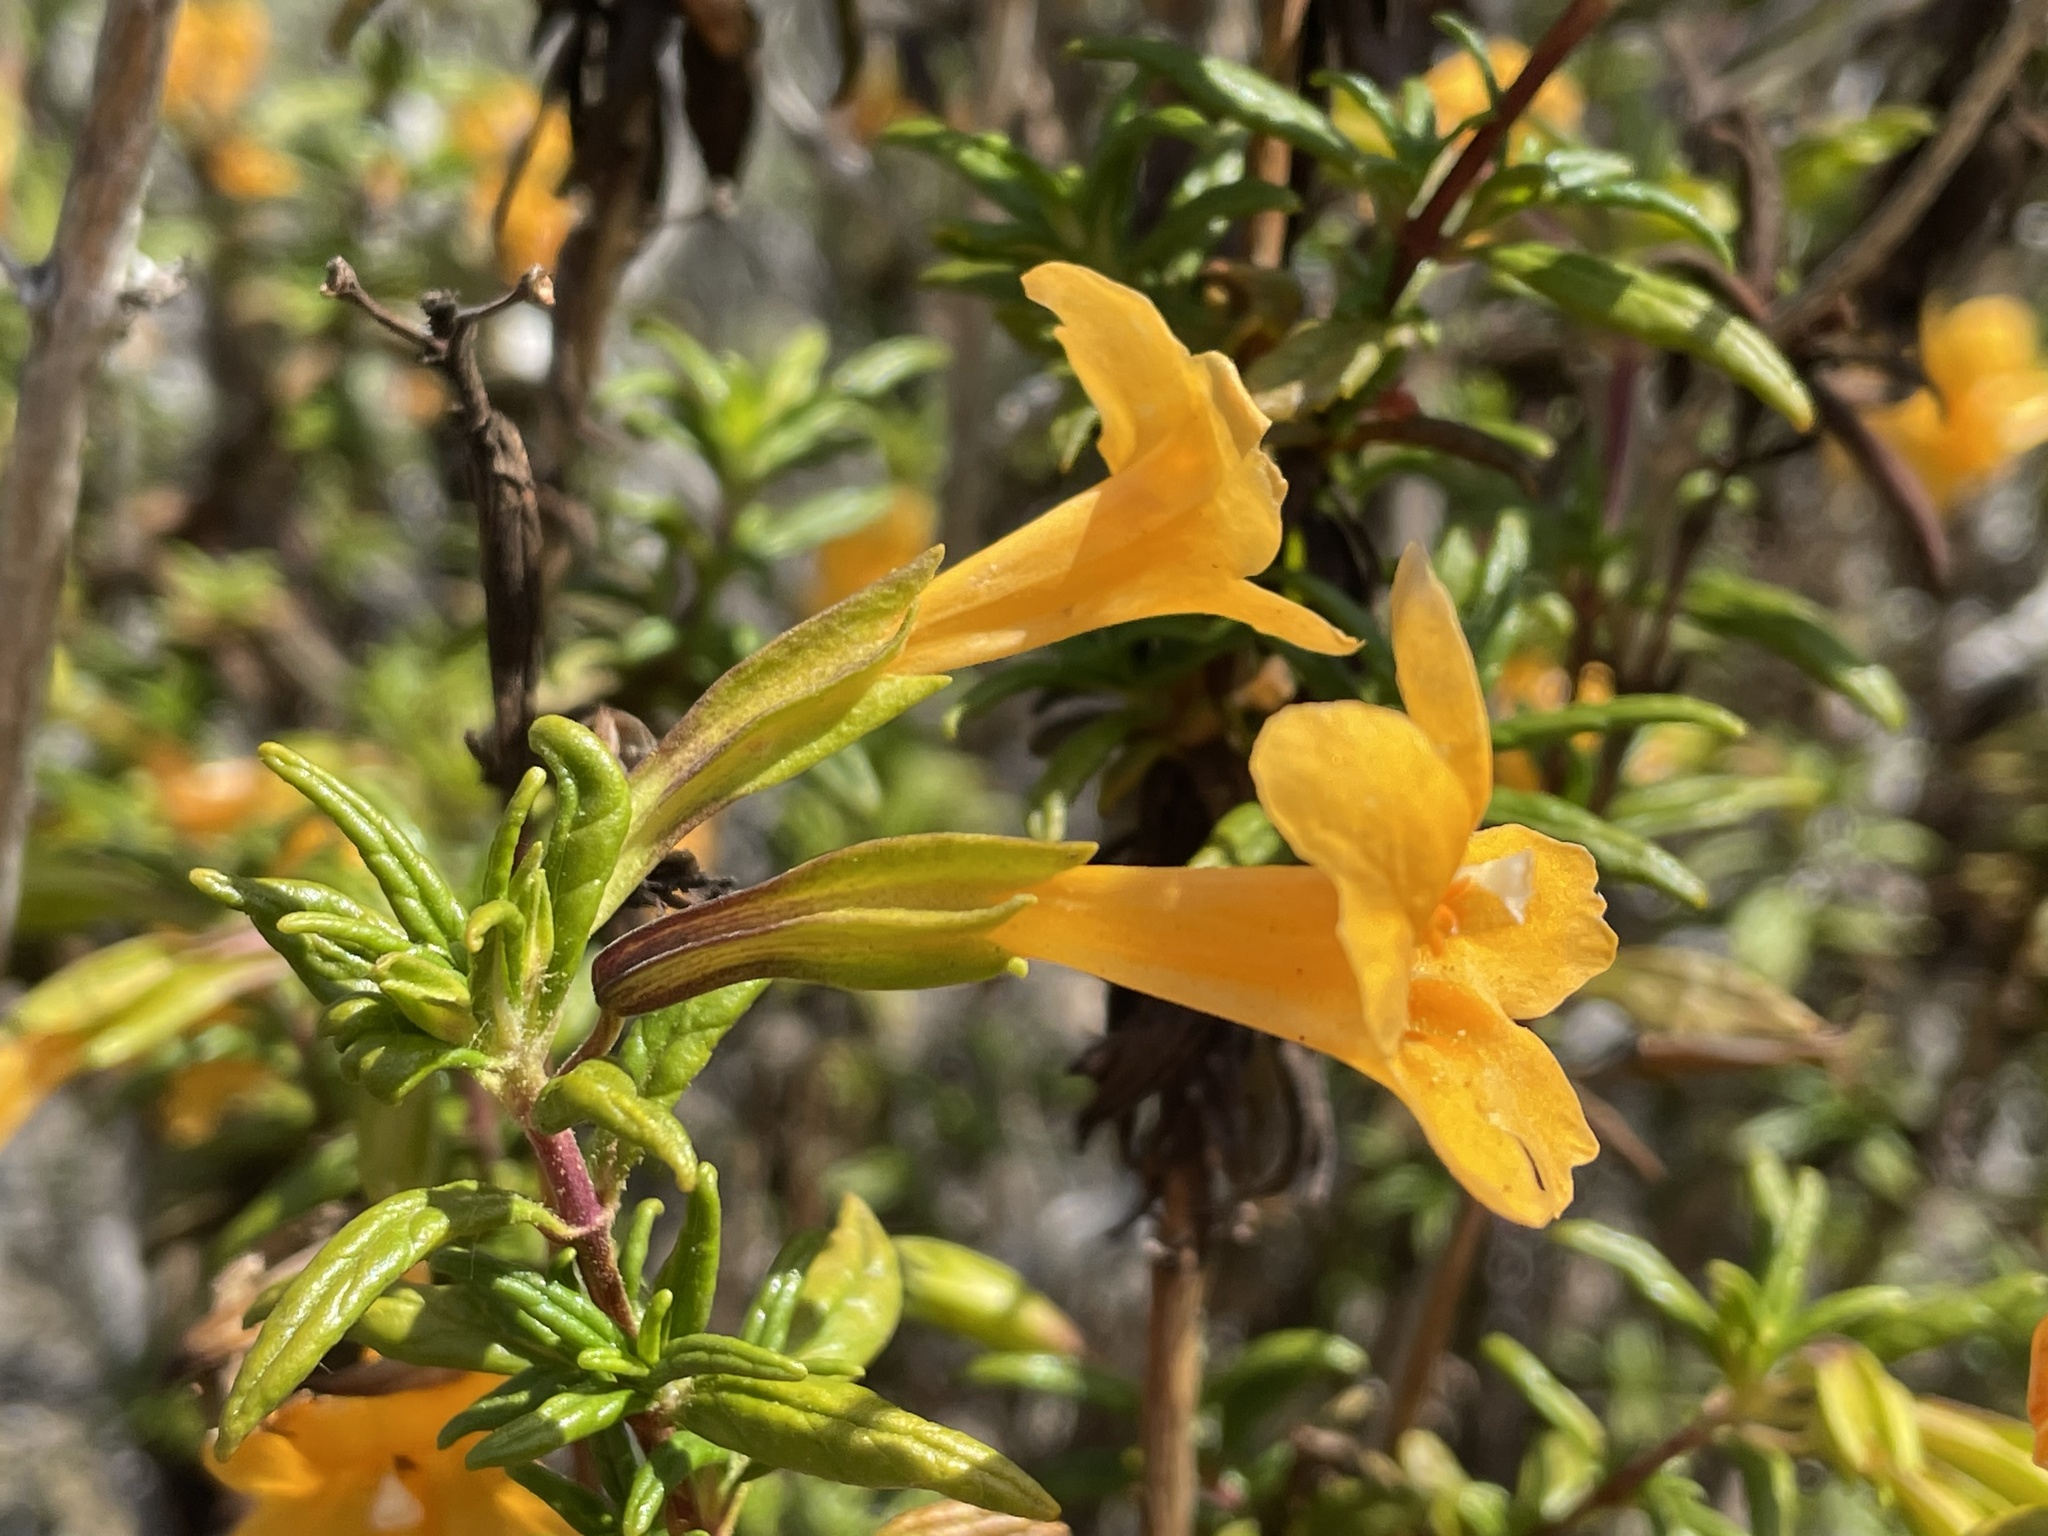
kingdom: Plantae
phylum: Tracheophyta
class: Magnoliopsida
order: Lamiales
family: Phrymaceae
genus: Diplacus
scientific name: Diplacus aurantiacus
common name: Bush monkey-flower
